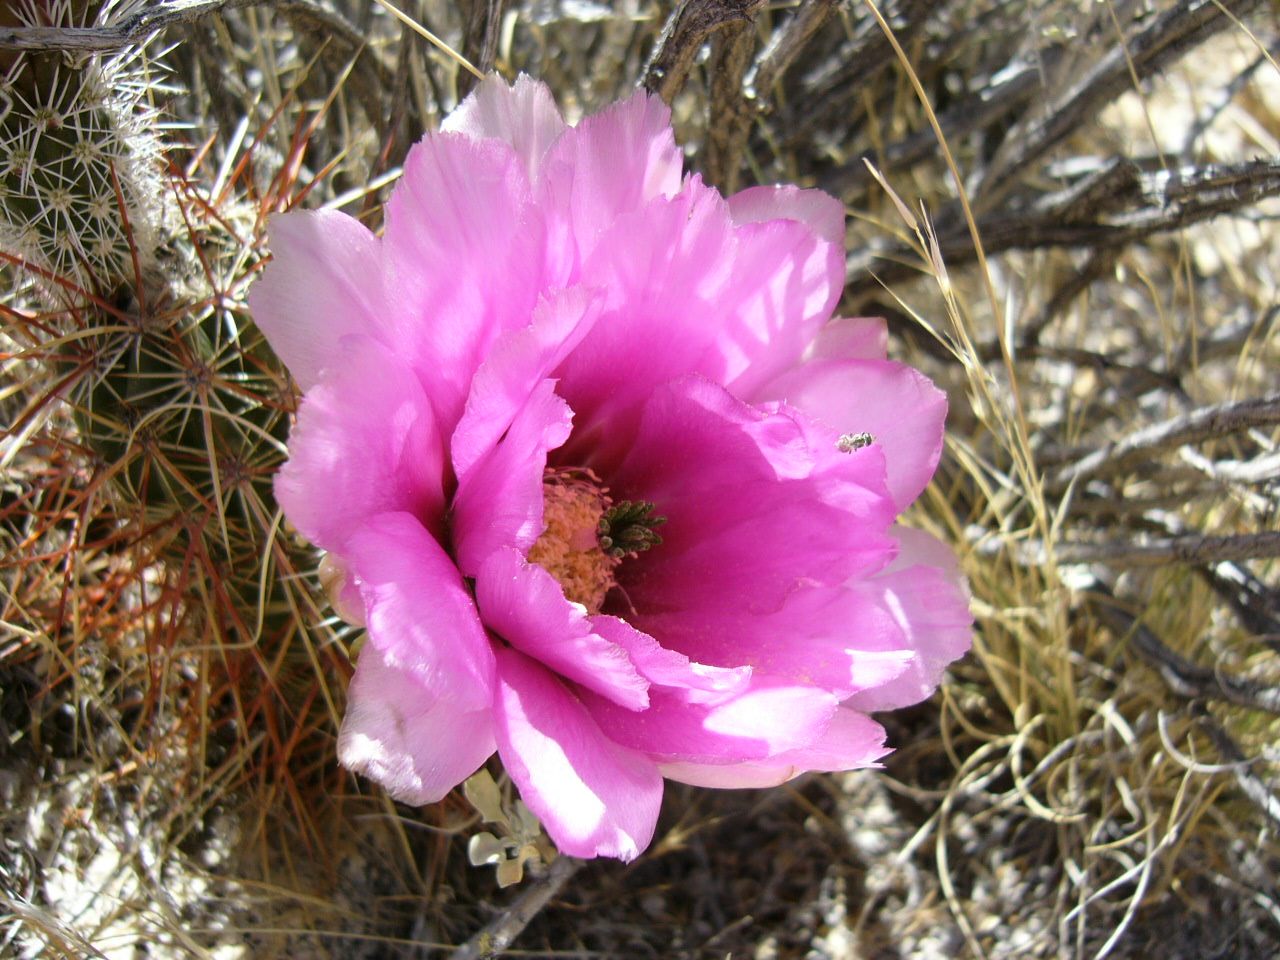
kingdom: Plantae
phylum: Tracheophyta
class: Magnoliopsida
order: Caryophyllales
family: Cactaceae
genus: Echinocereus
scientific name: Echinocereus engelmannii
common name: Engelmann's hedgehog cactus
